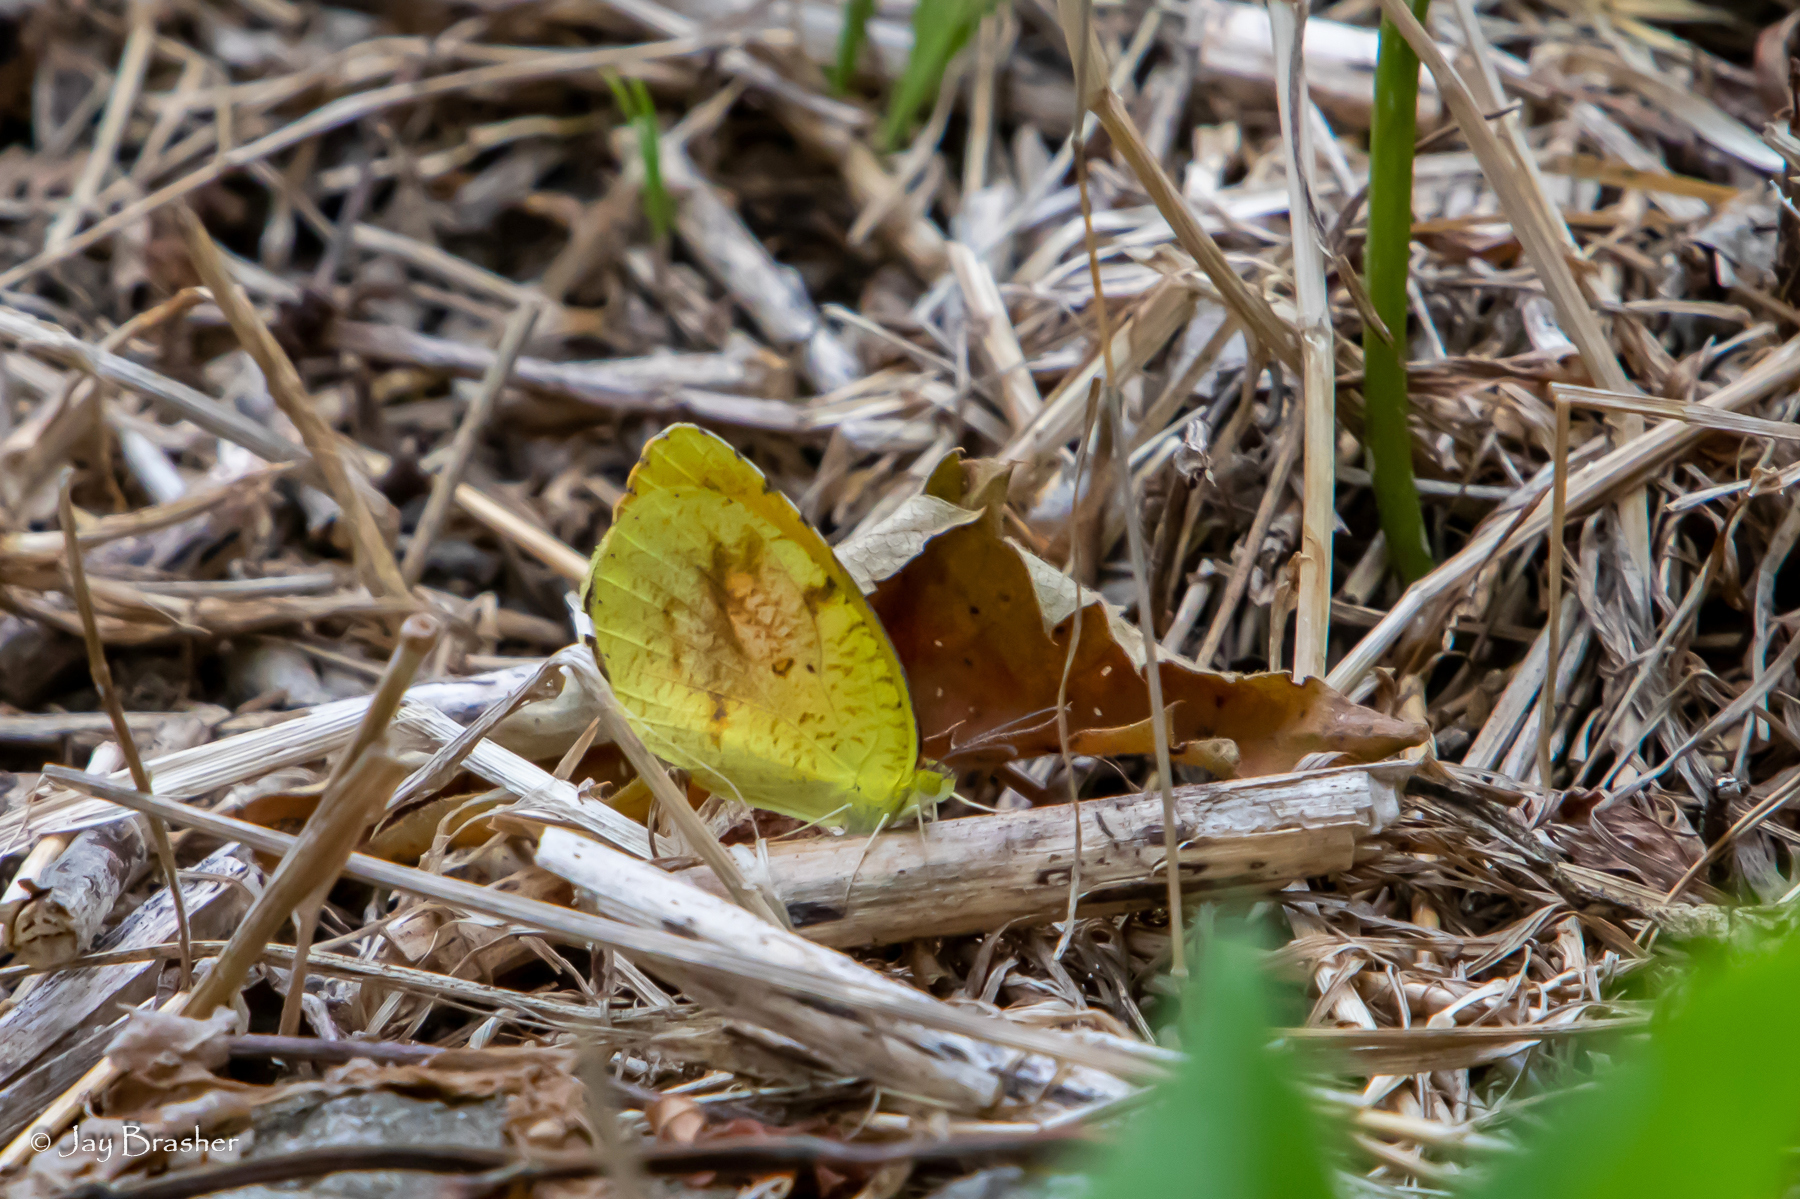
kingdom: Animalia
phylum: Arthropoda
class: Insecta
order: Lepidoptera
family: Pieridae
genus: Abaeis
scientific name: Abaeis nicippe
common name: Sleepy orange
